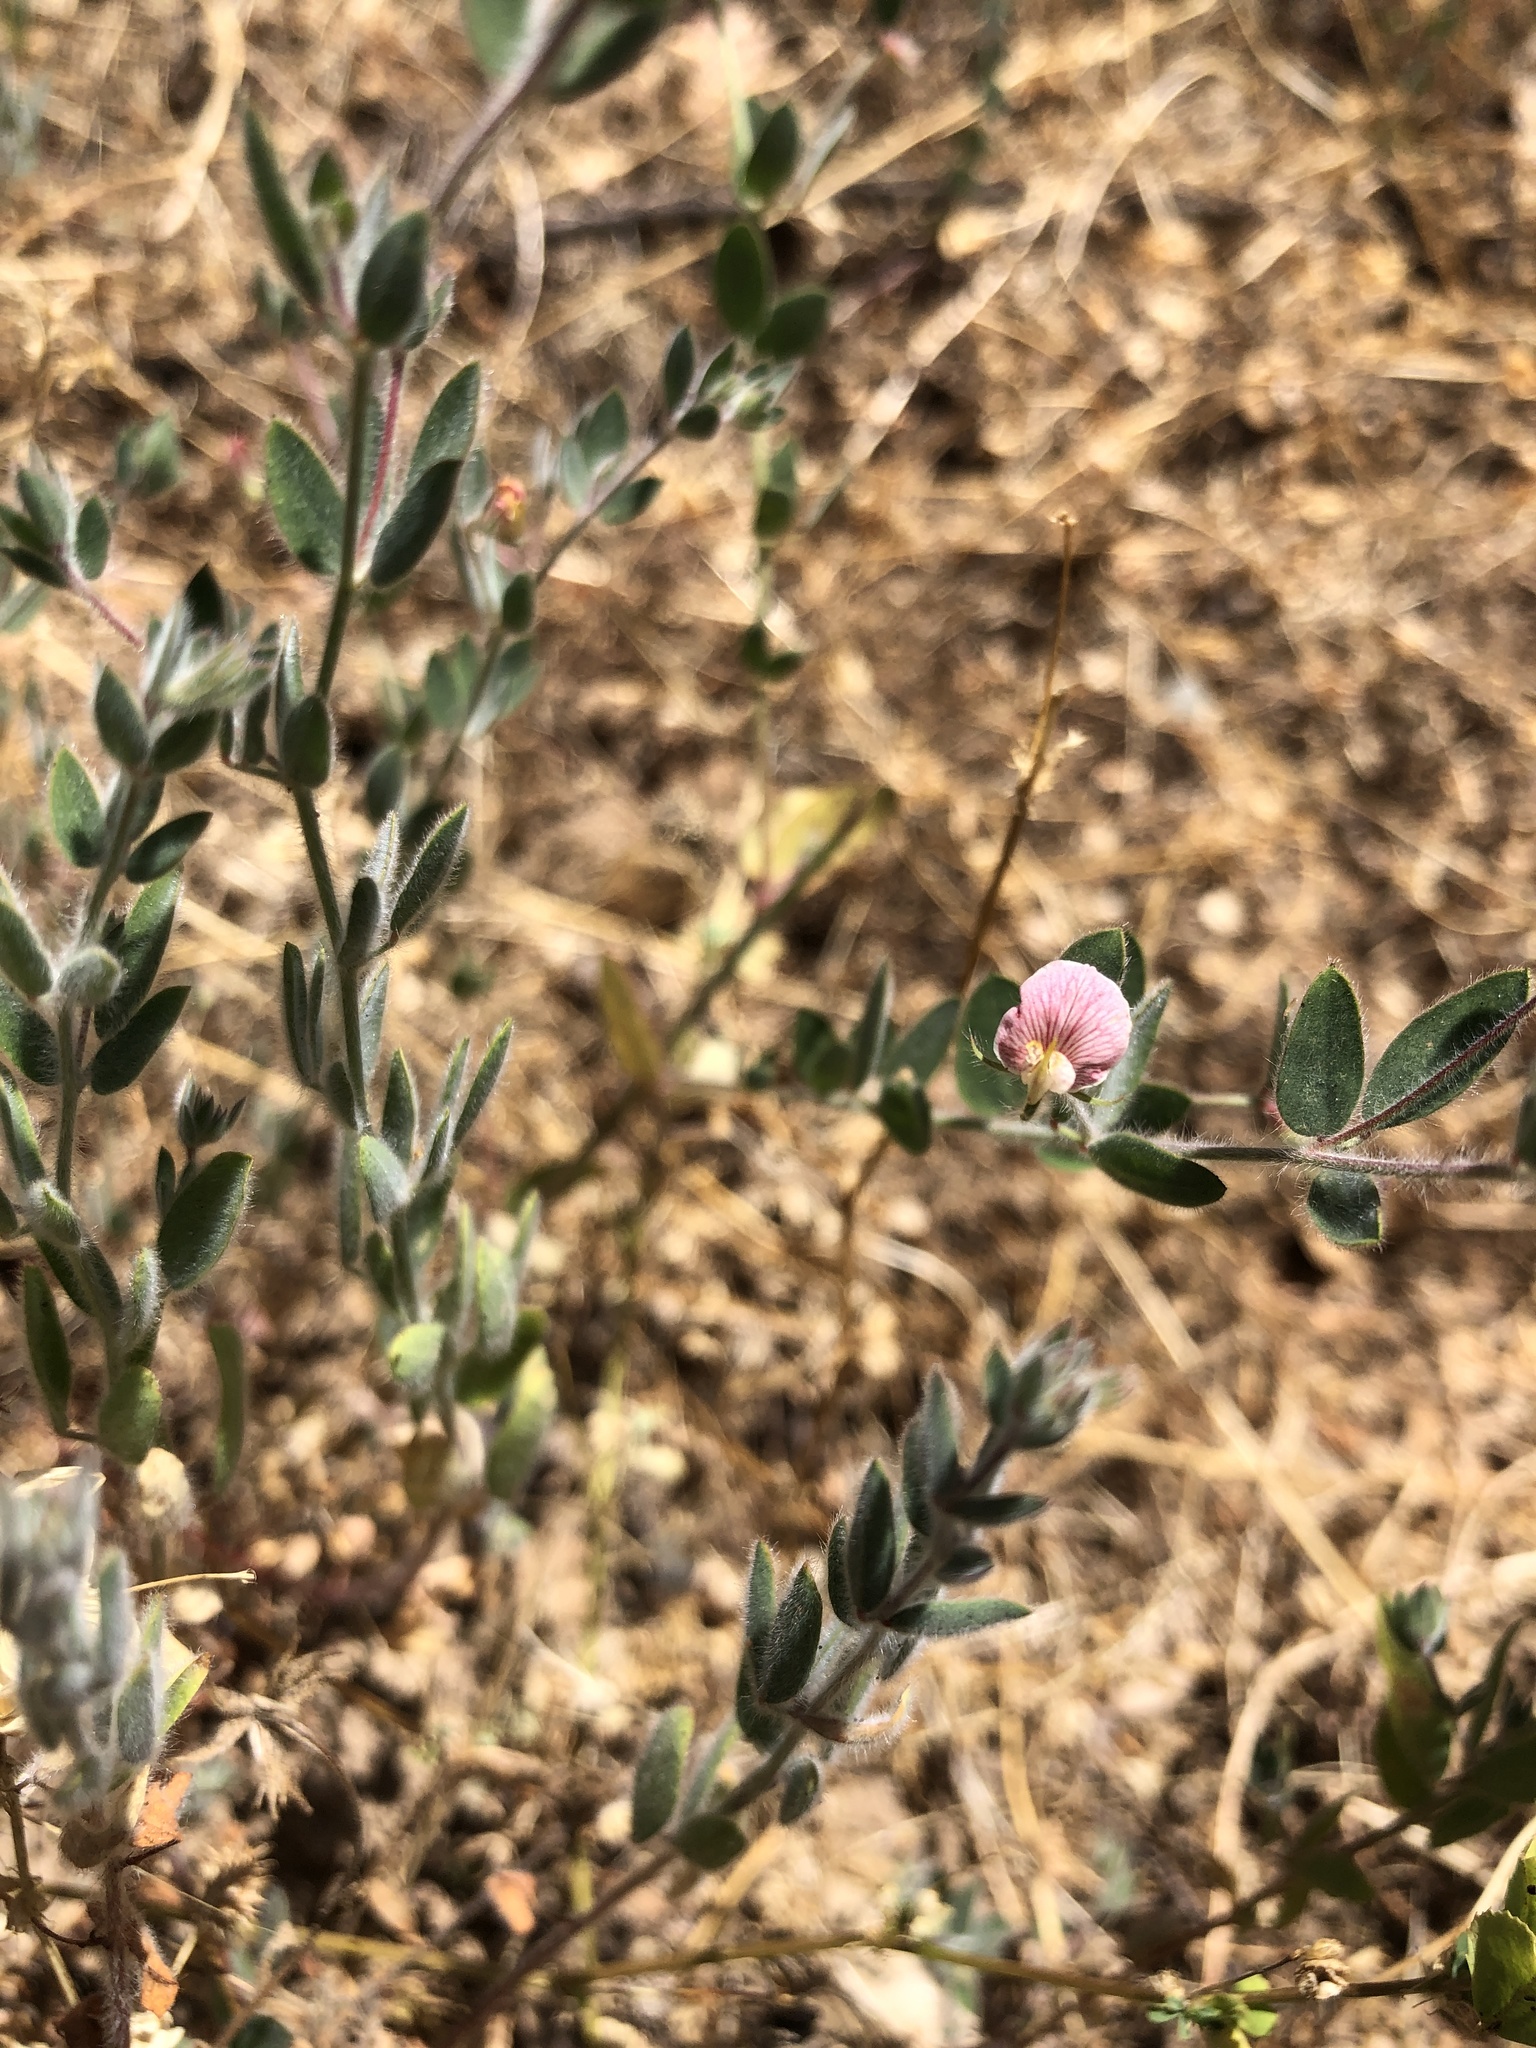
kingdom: Plantae
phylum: Tracheophyta
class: Magnoliopsida
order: Fabales
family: Fabaceae
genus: Acmispon
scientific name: Acmispon americanus
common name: American bird's-foot trefoil
